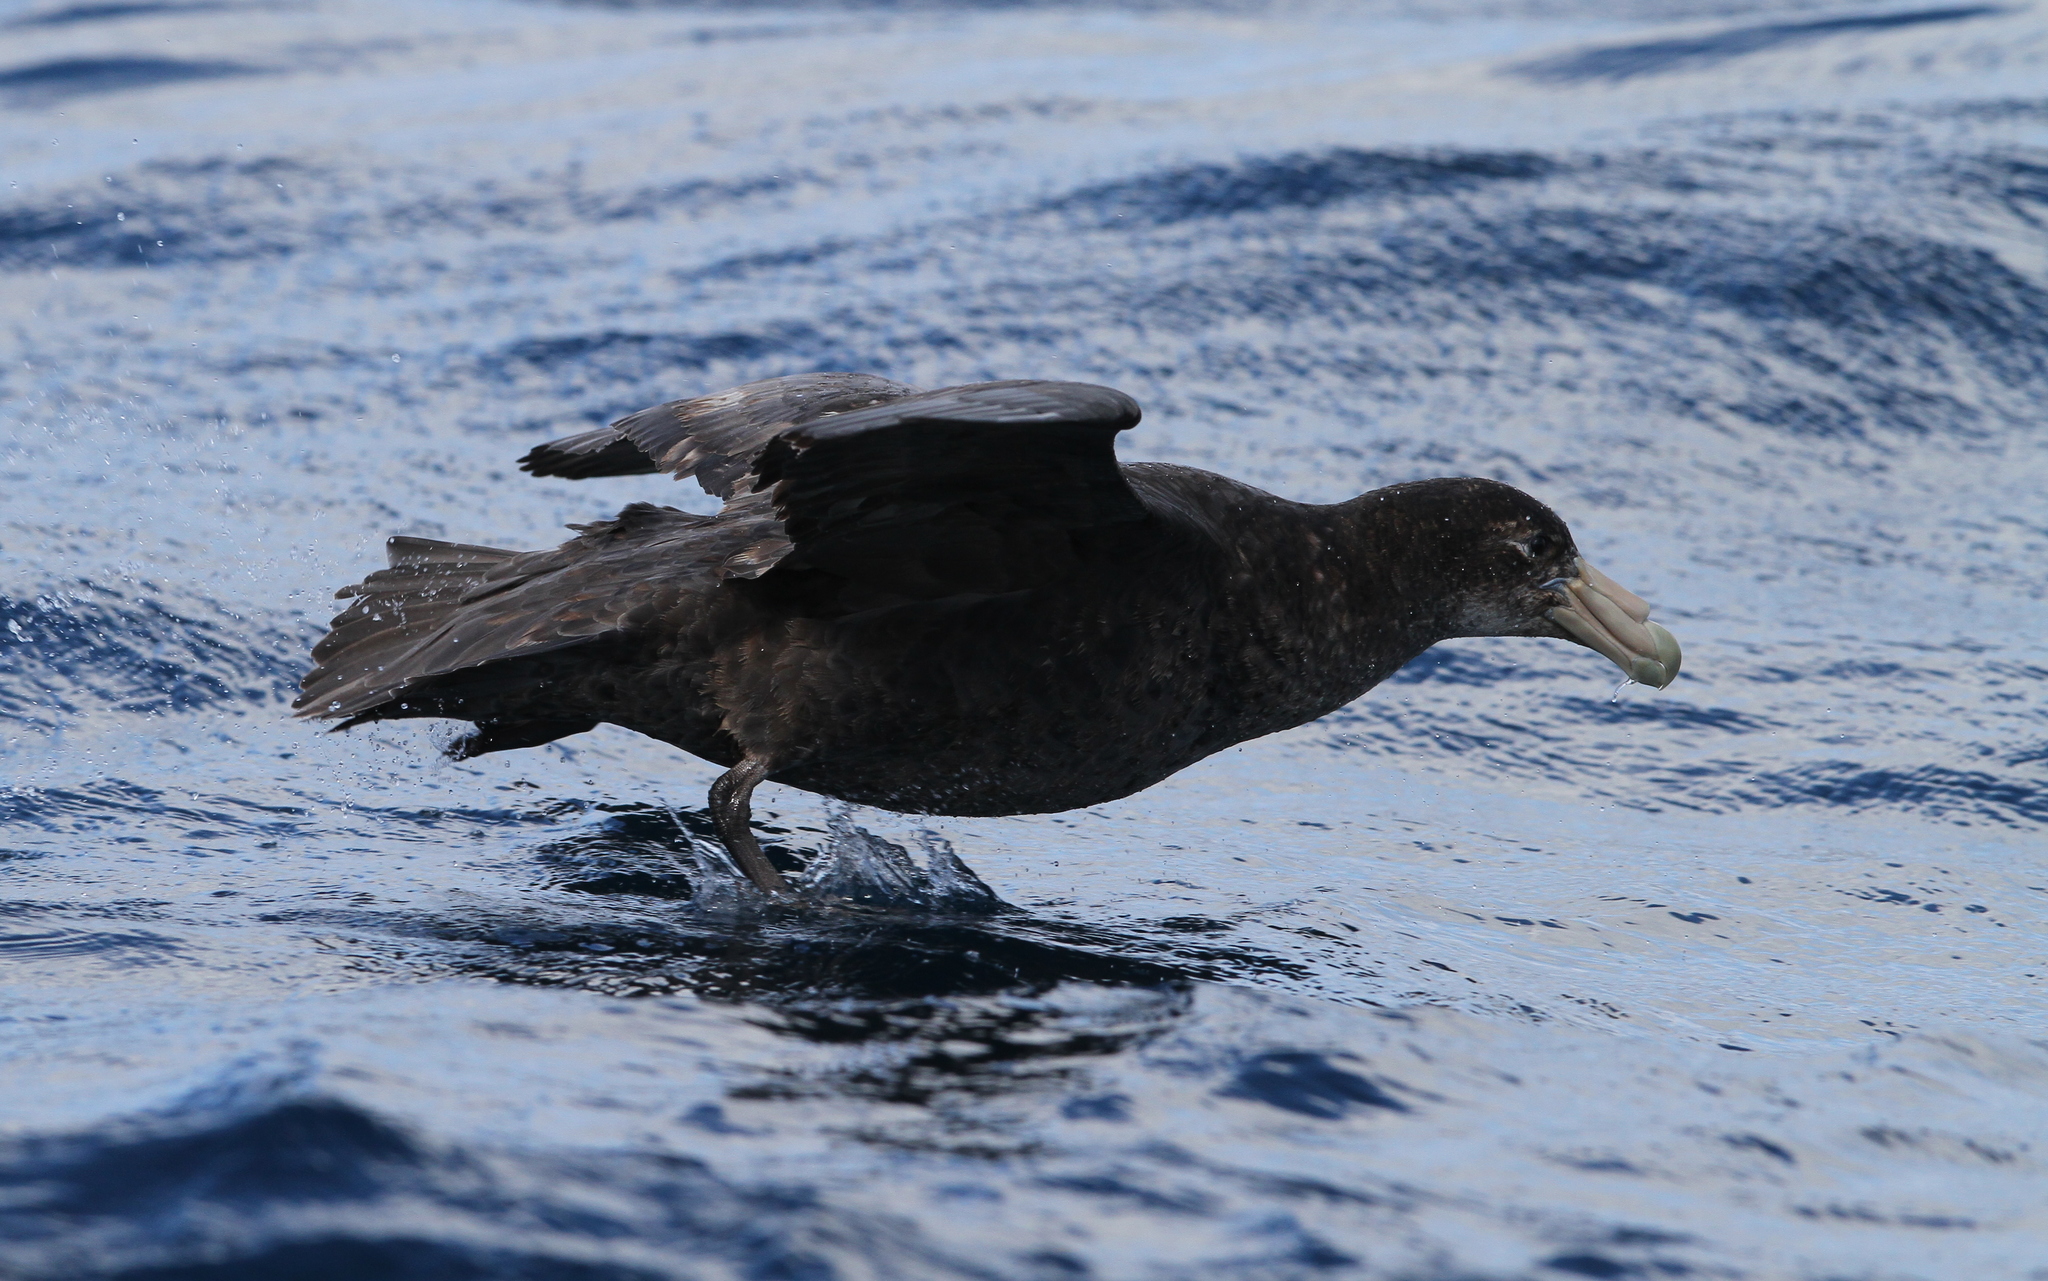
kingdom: Animalia
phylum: Chordata
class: Aves
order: Procellariiformes
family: Procellariidae
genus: Macronectes
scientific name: Macronectes giganteus
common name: Southern giant petrel
